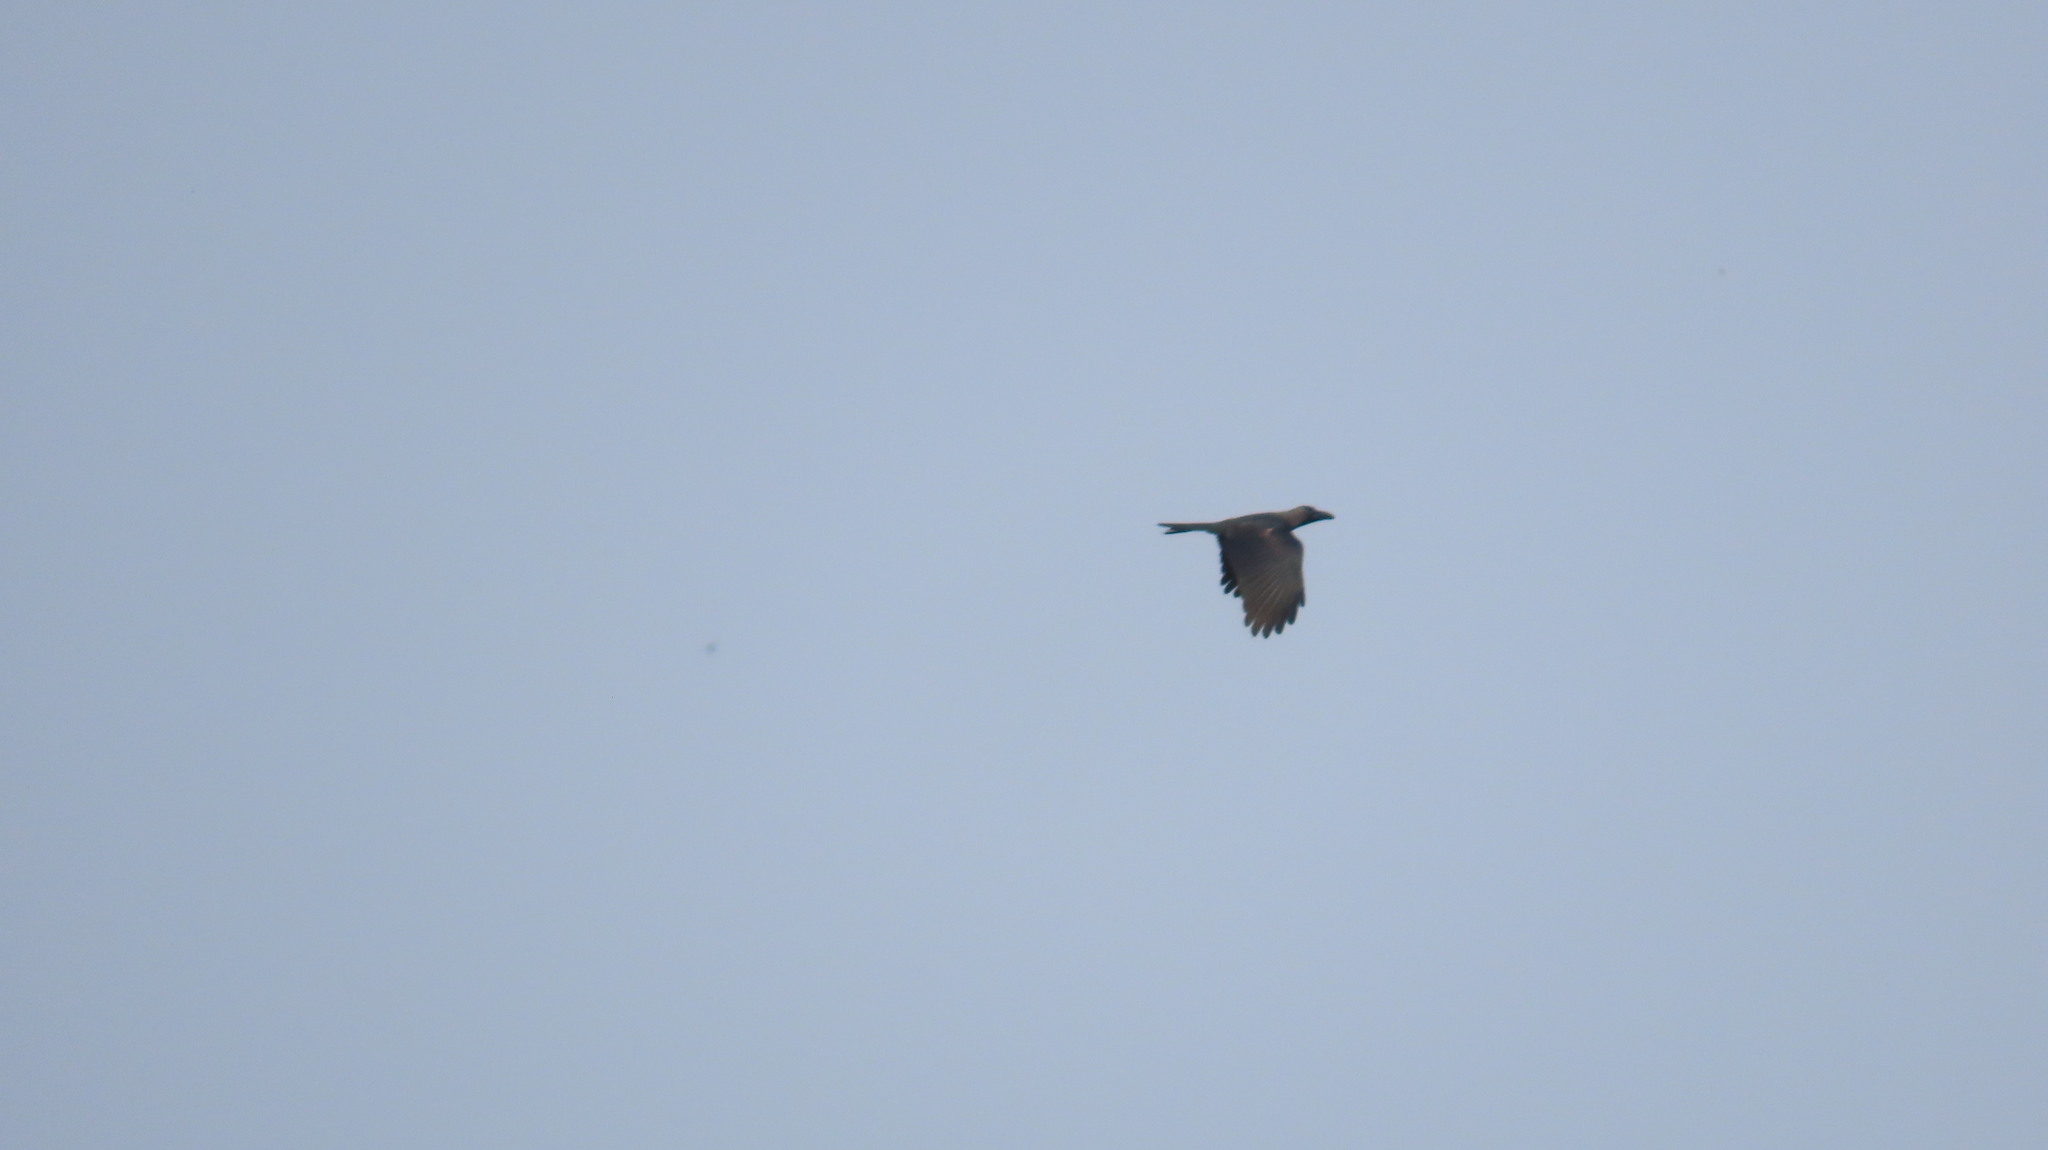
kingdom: Animalia
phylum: Chordata
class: Aves
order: Passeriformes
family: Corvidae
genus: Corvus
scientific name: Corvus splendens
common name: House crow
